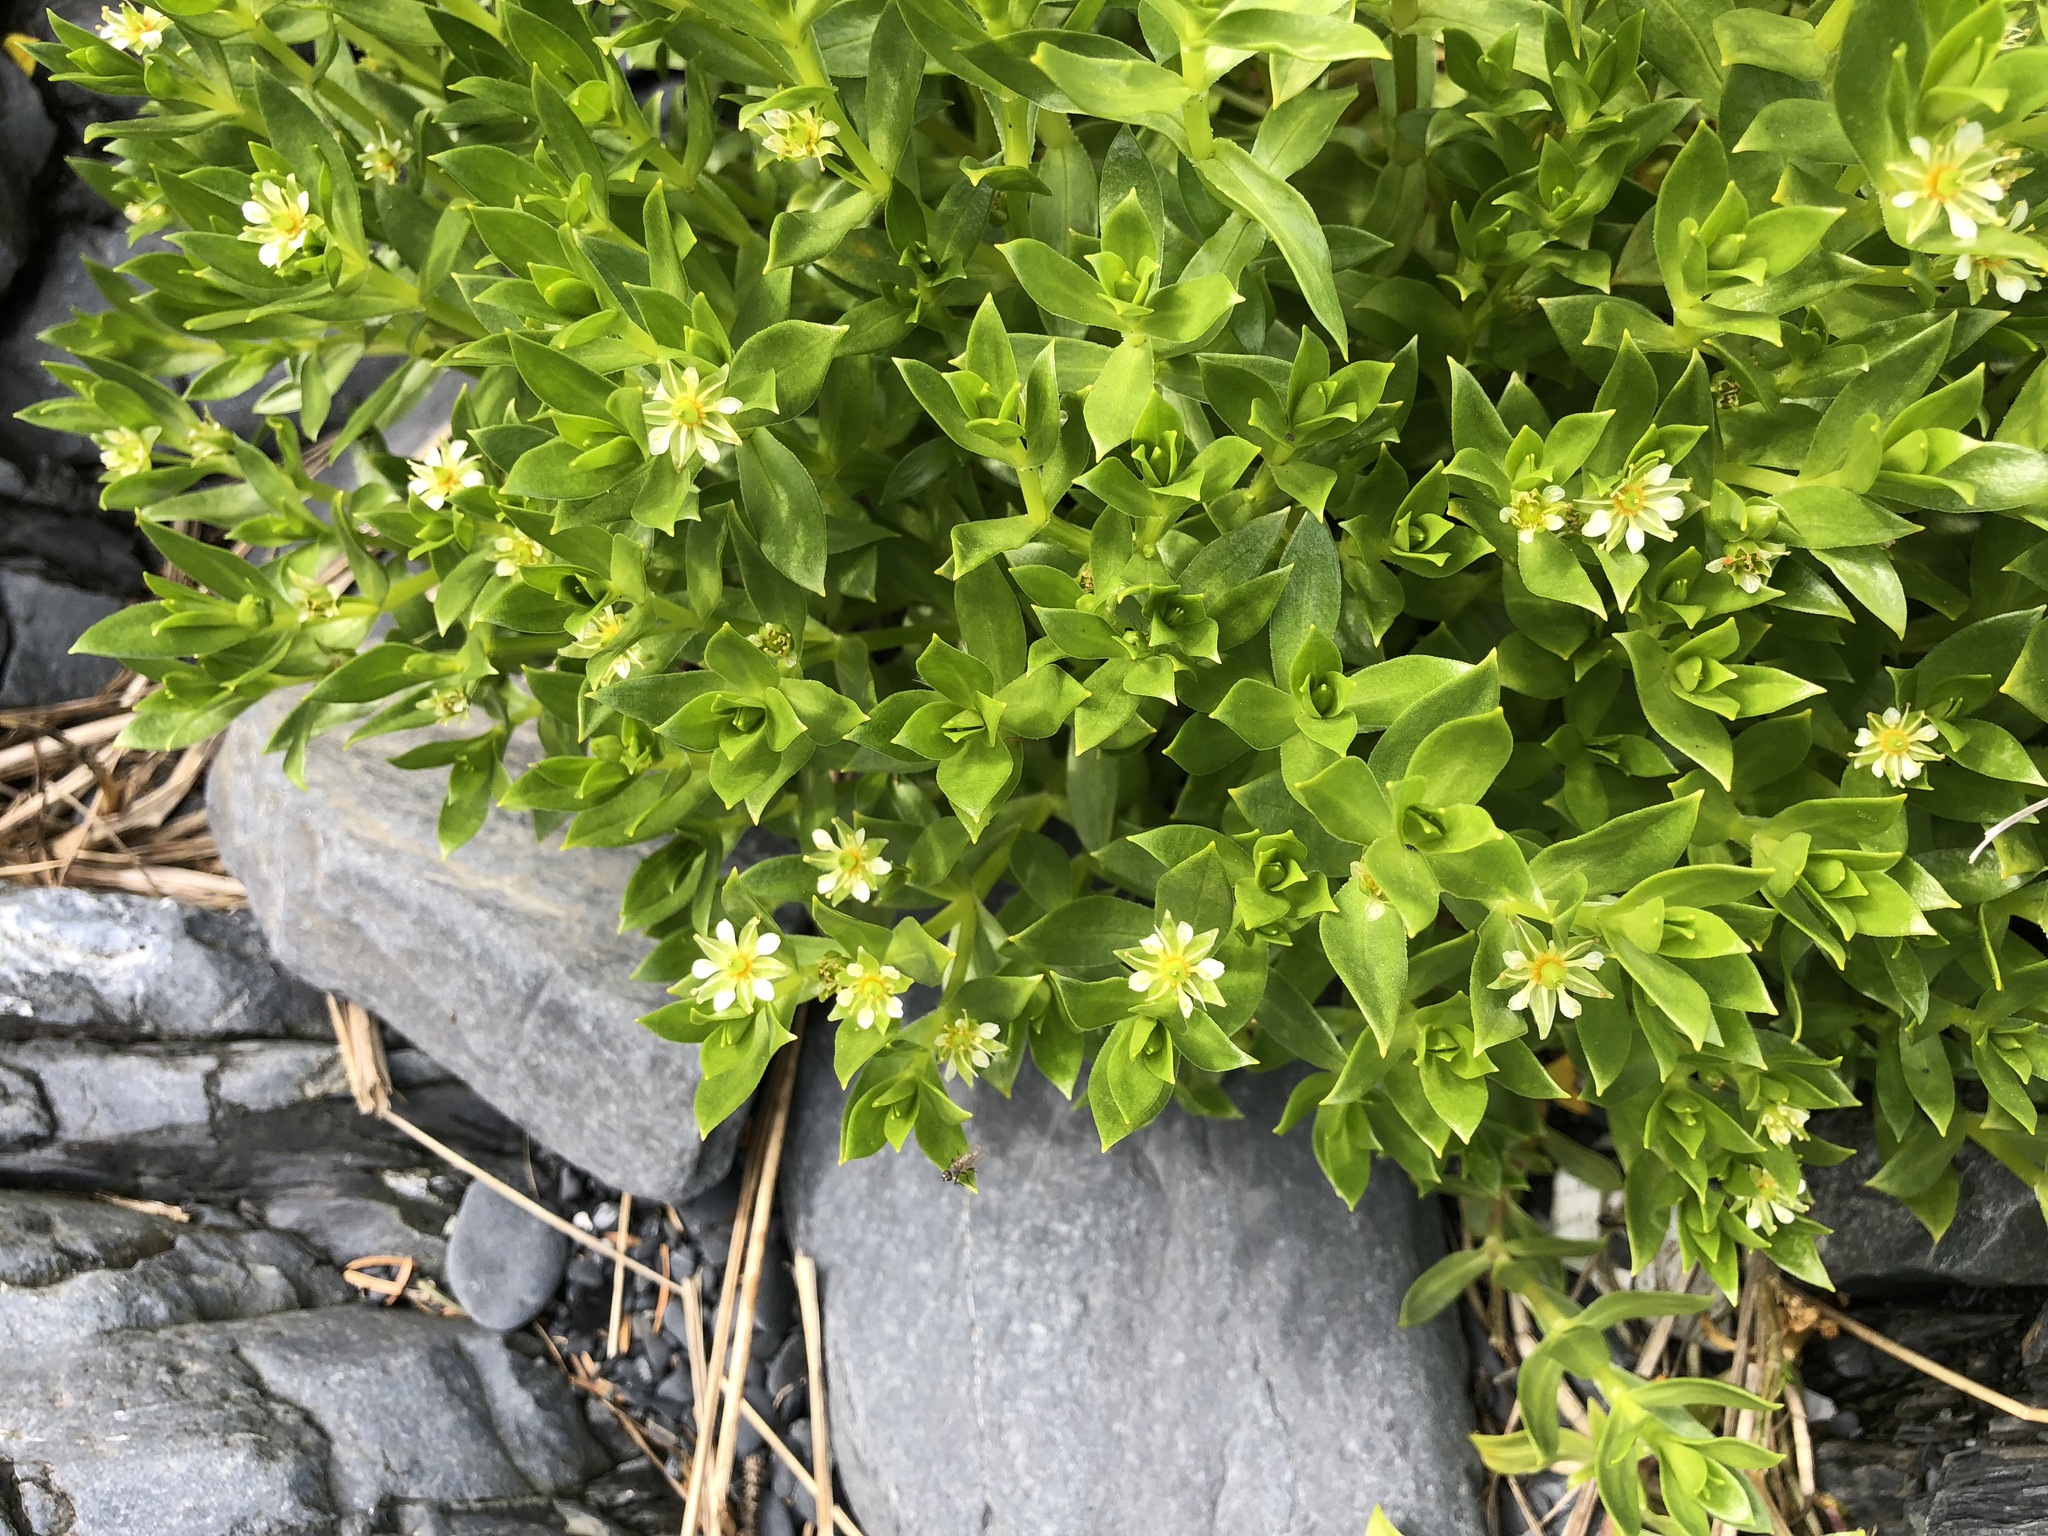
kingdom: Plantae
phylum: Tracheophyta
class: Magnoliopsida
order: Caryophyllales
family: Caryophyllaceae
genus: Honckenya
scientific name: Honckenya peploides
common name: Sea sandwort
